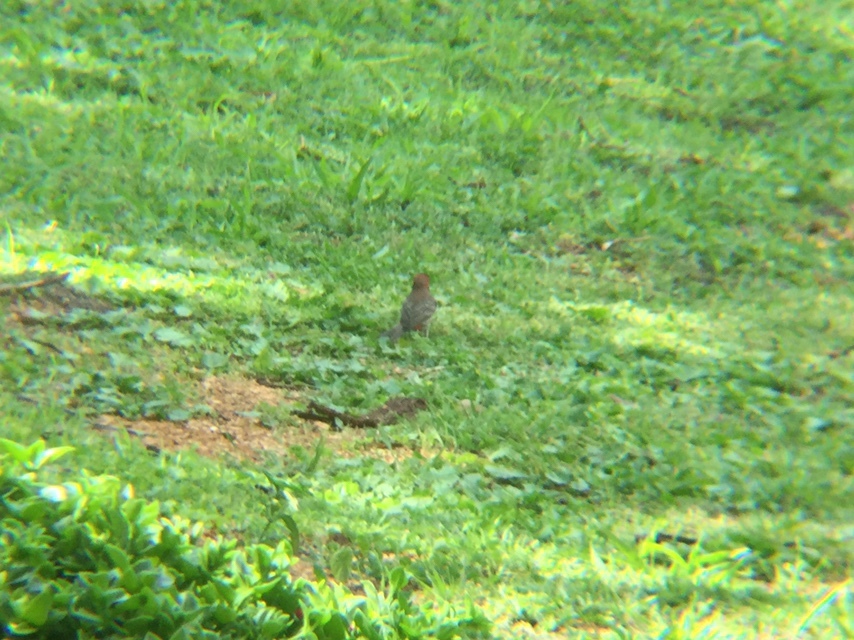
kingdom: Animalia
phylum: Chordata
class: Aves
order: Passeriformes
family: Fringillidae
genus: Haemorhous
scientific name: Haemorhous mexicanus
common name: House finch
